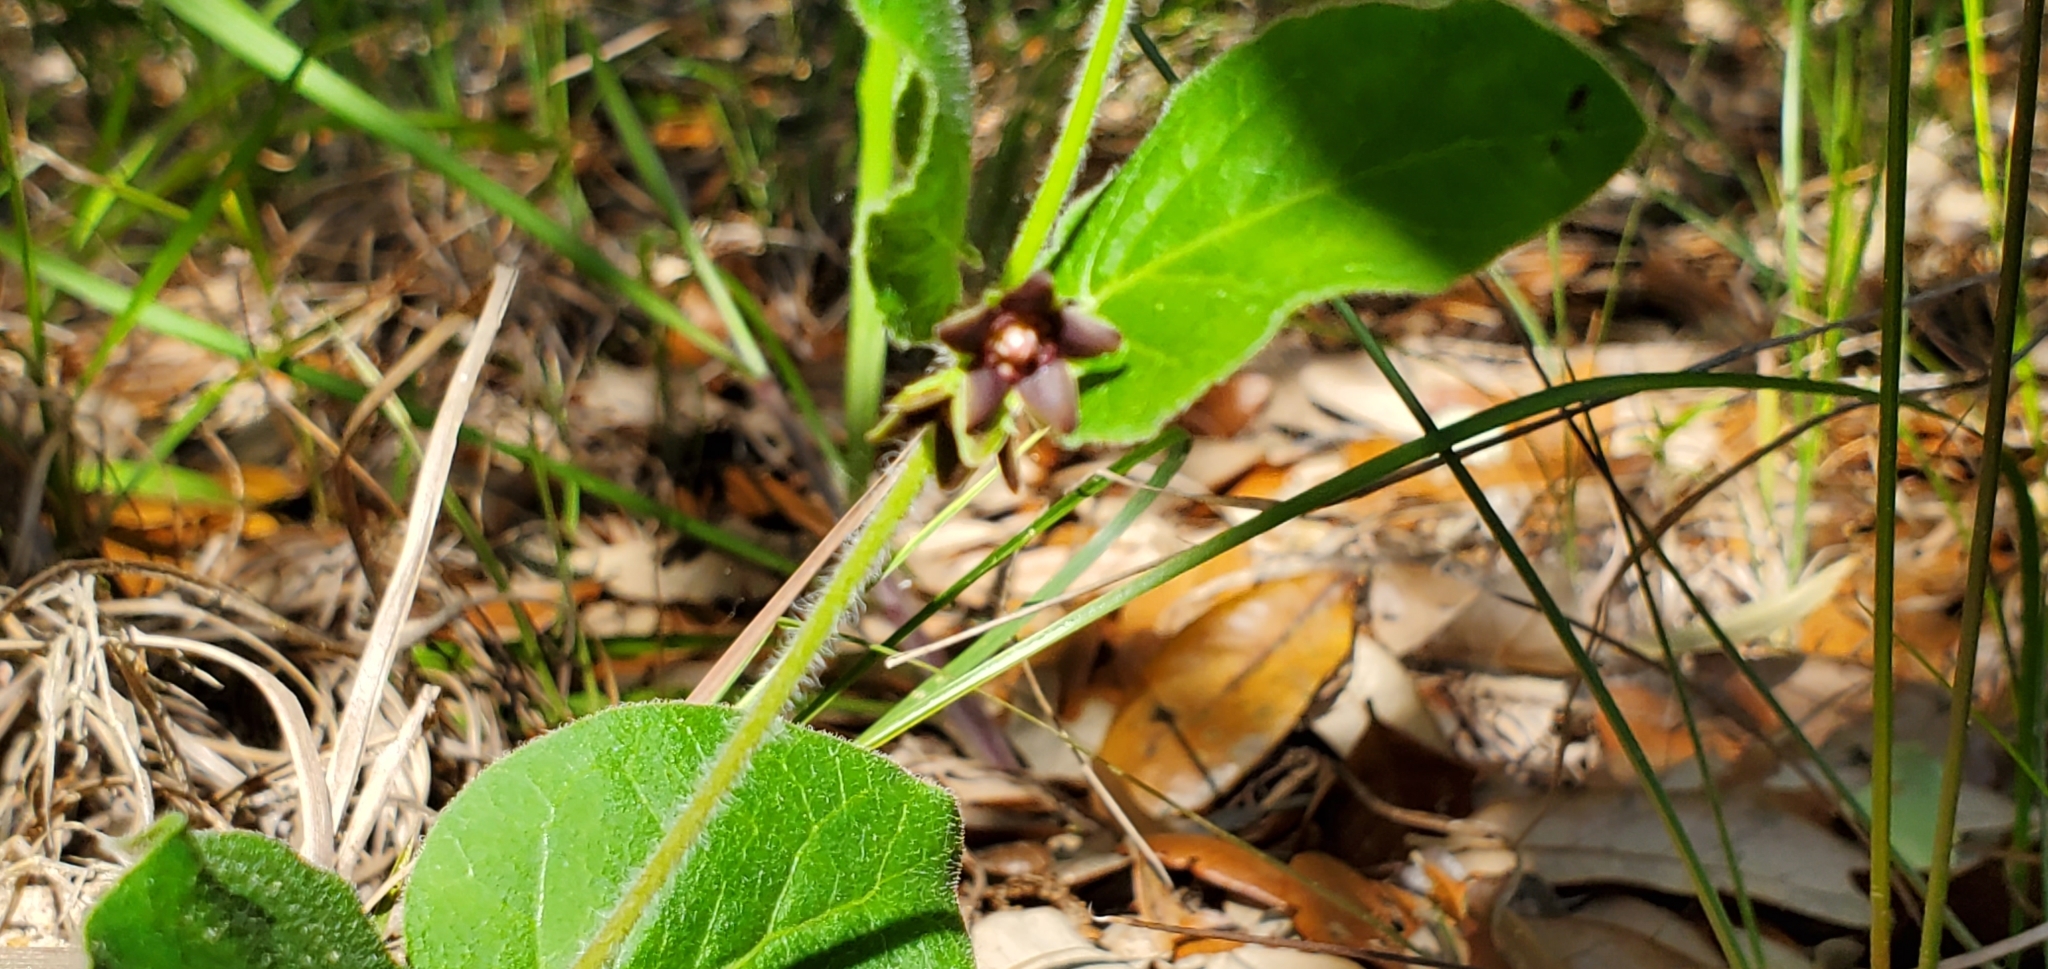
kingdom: Plantae
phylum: Tracheophyta
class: Magnoliopsida
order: Gentianales
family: Apocynaceae
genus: Matelea
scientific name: Matelea cynanchoides
